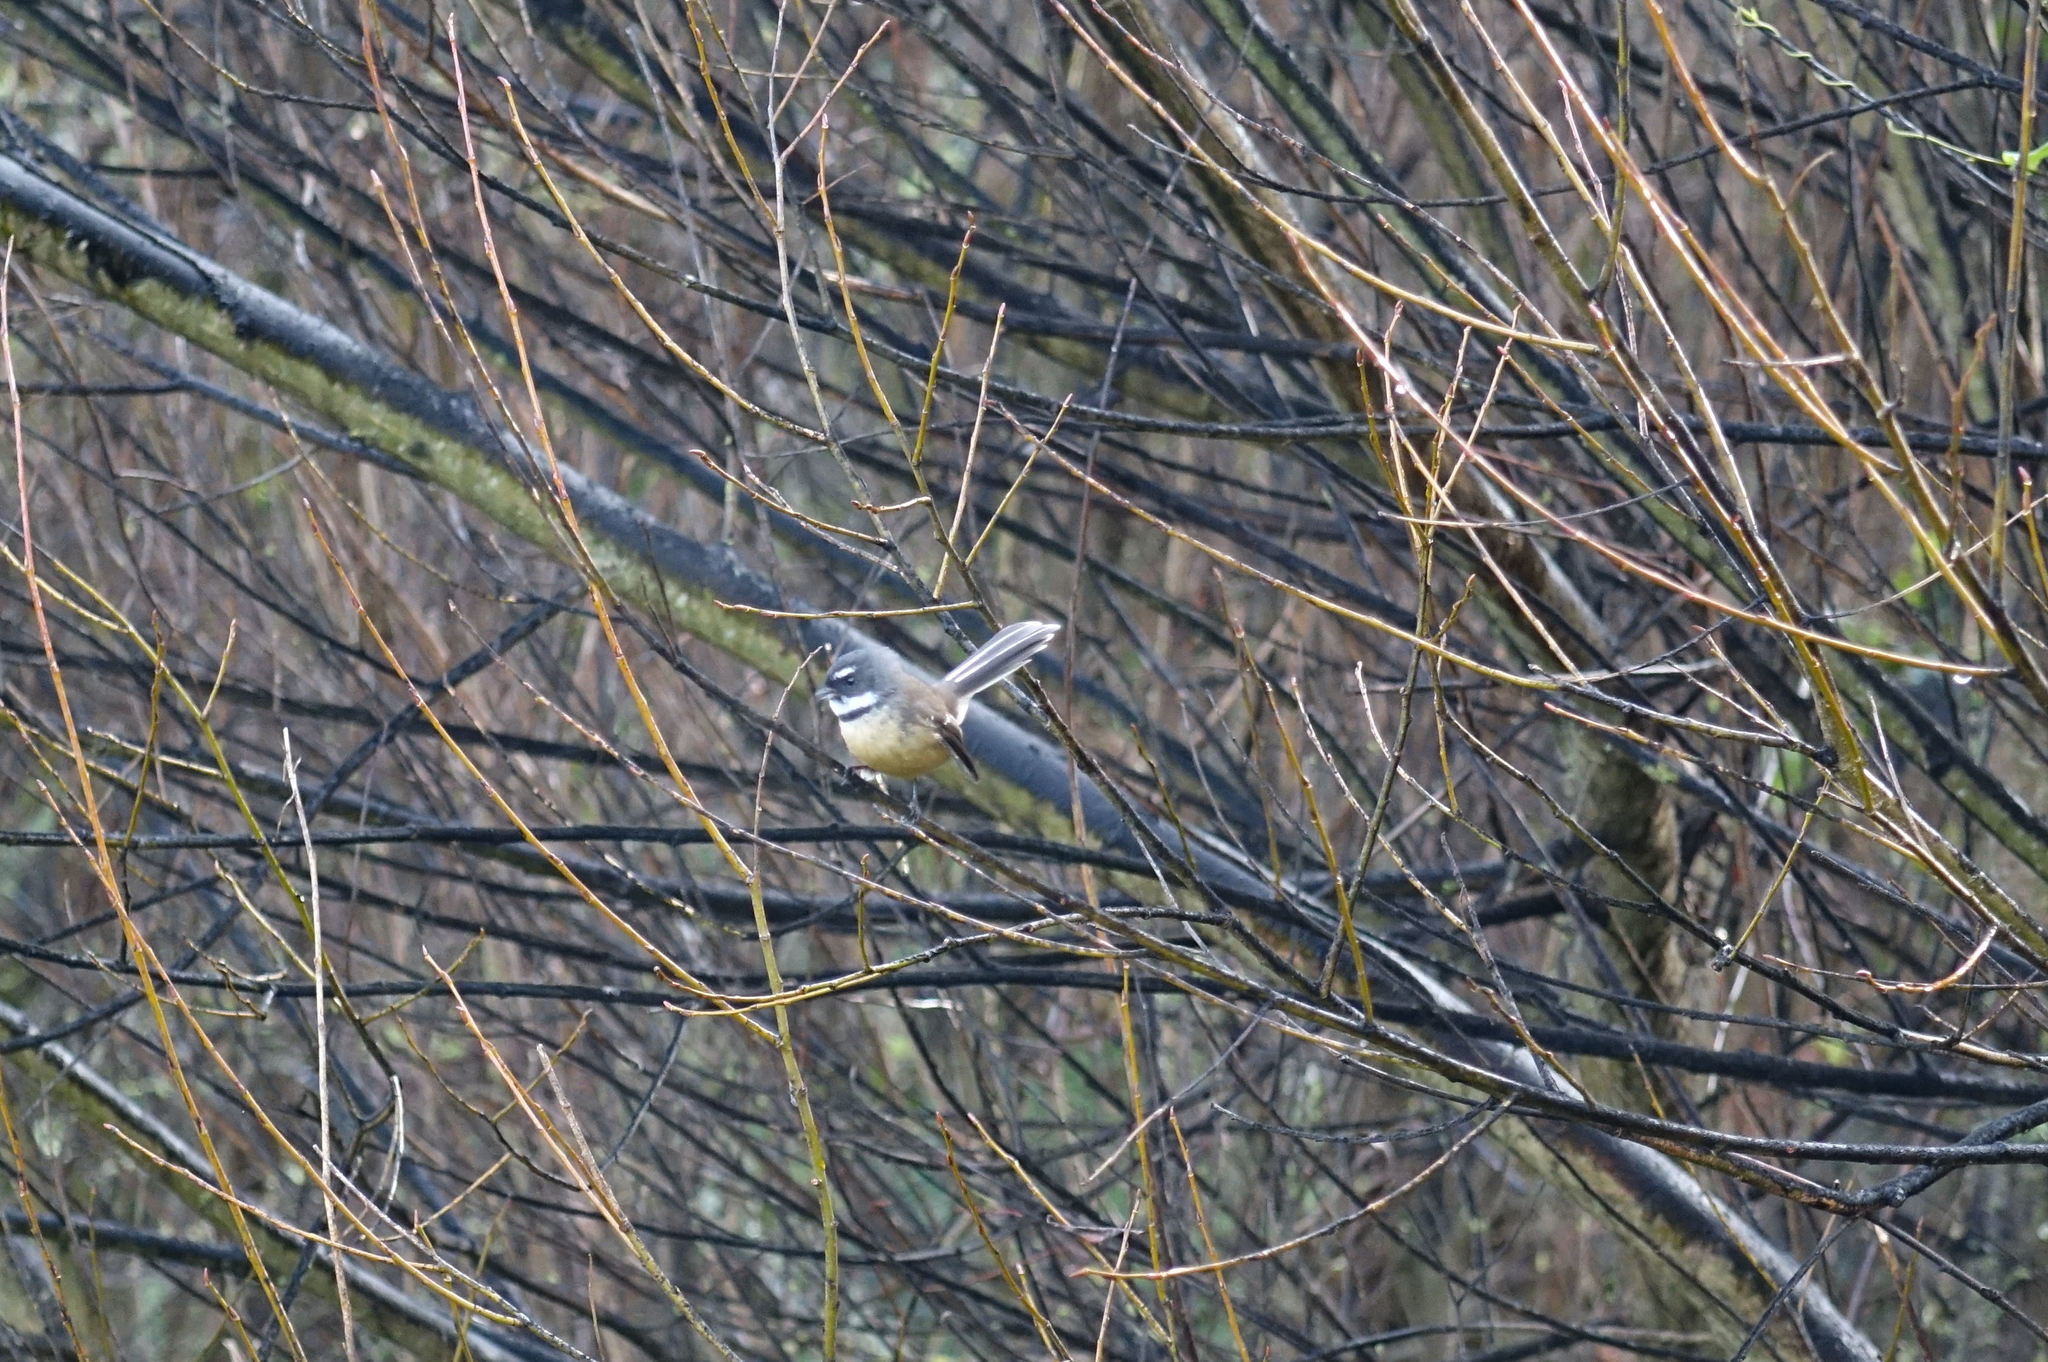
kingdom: Animalia
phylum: Chordata
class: Aves
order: Passeriformes
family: Rhipiduridae
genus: Rhipidura
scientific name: Rhipidura fuliginosa
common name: New zealand fantail
